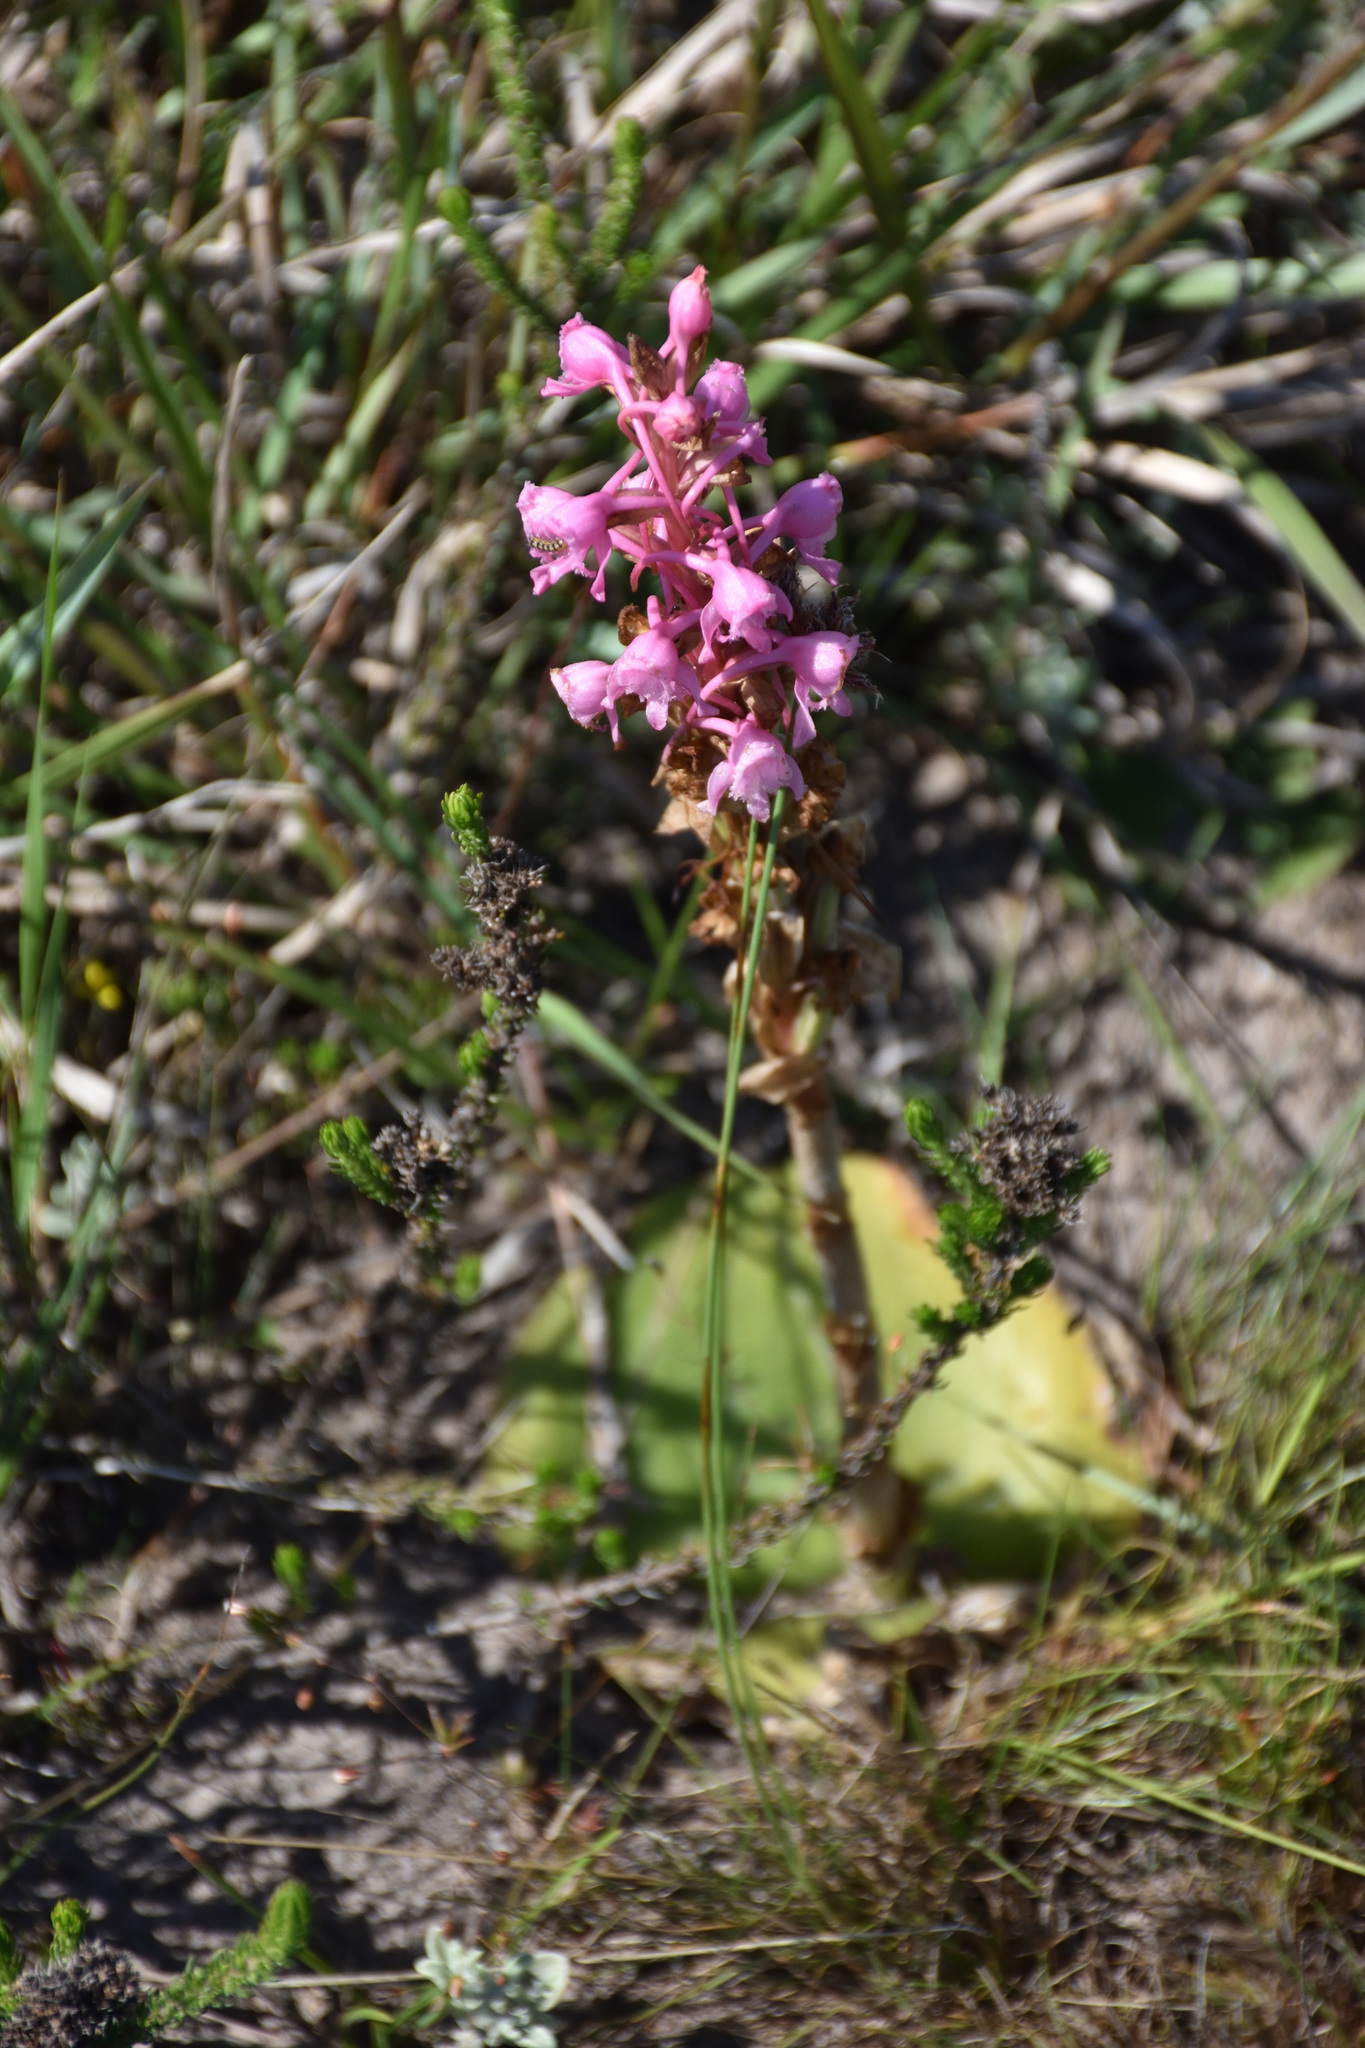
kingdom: Plantae
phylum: Tracheophyta
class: Liliopsida
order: Asparagales
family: Orchidaceae
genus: Satyrium
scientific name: Satyrium membranaceum
